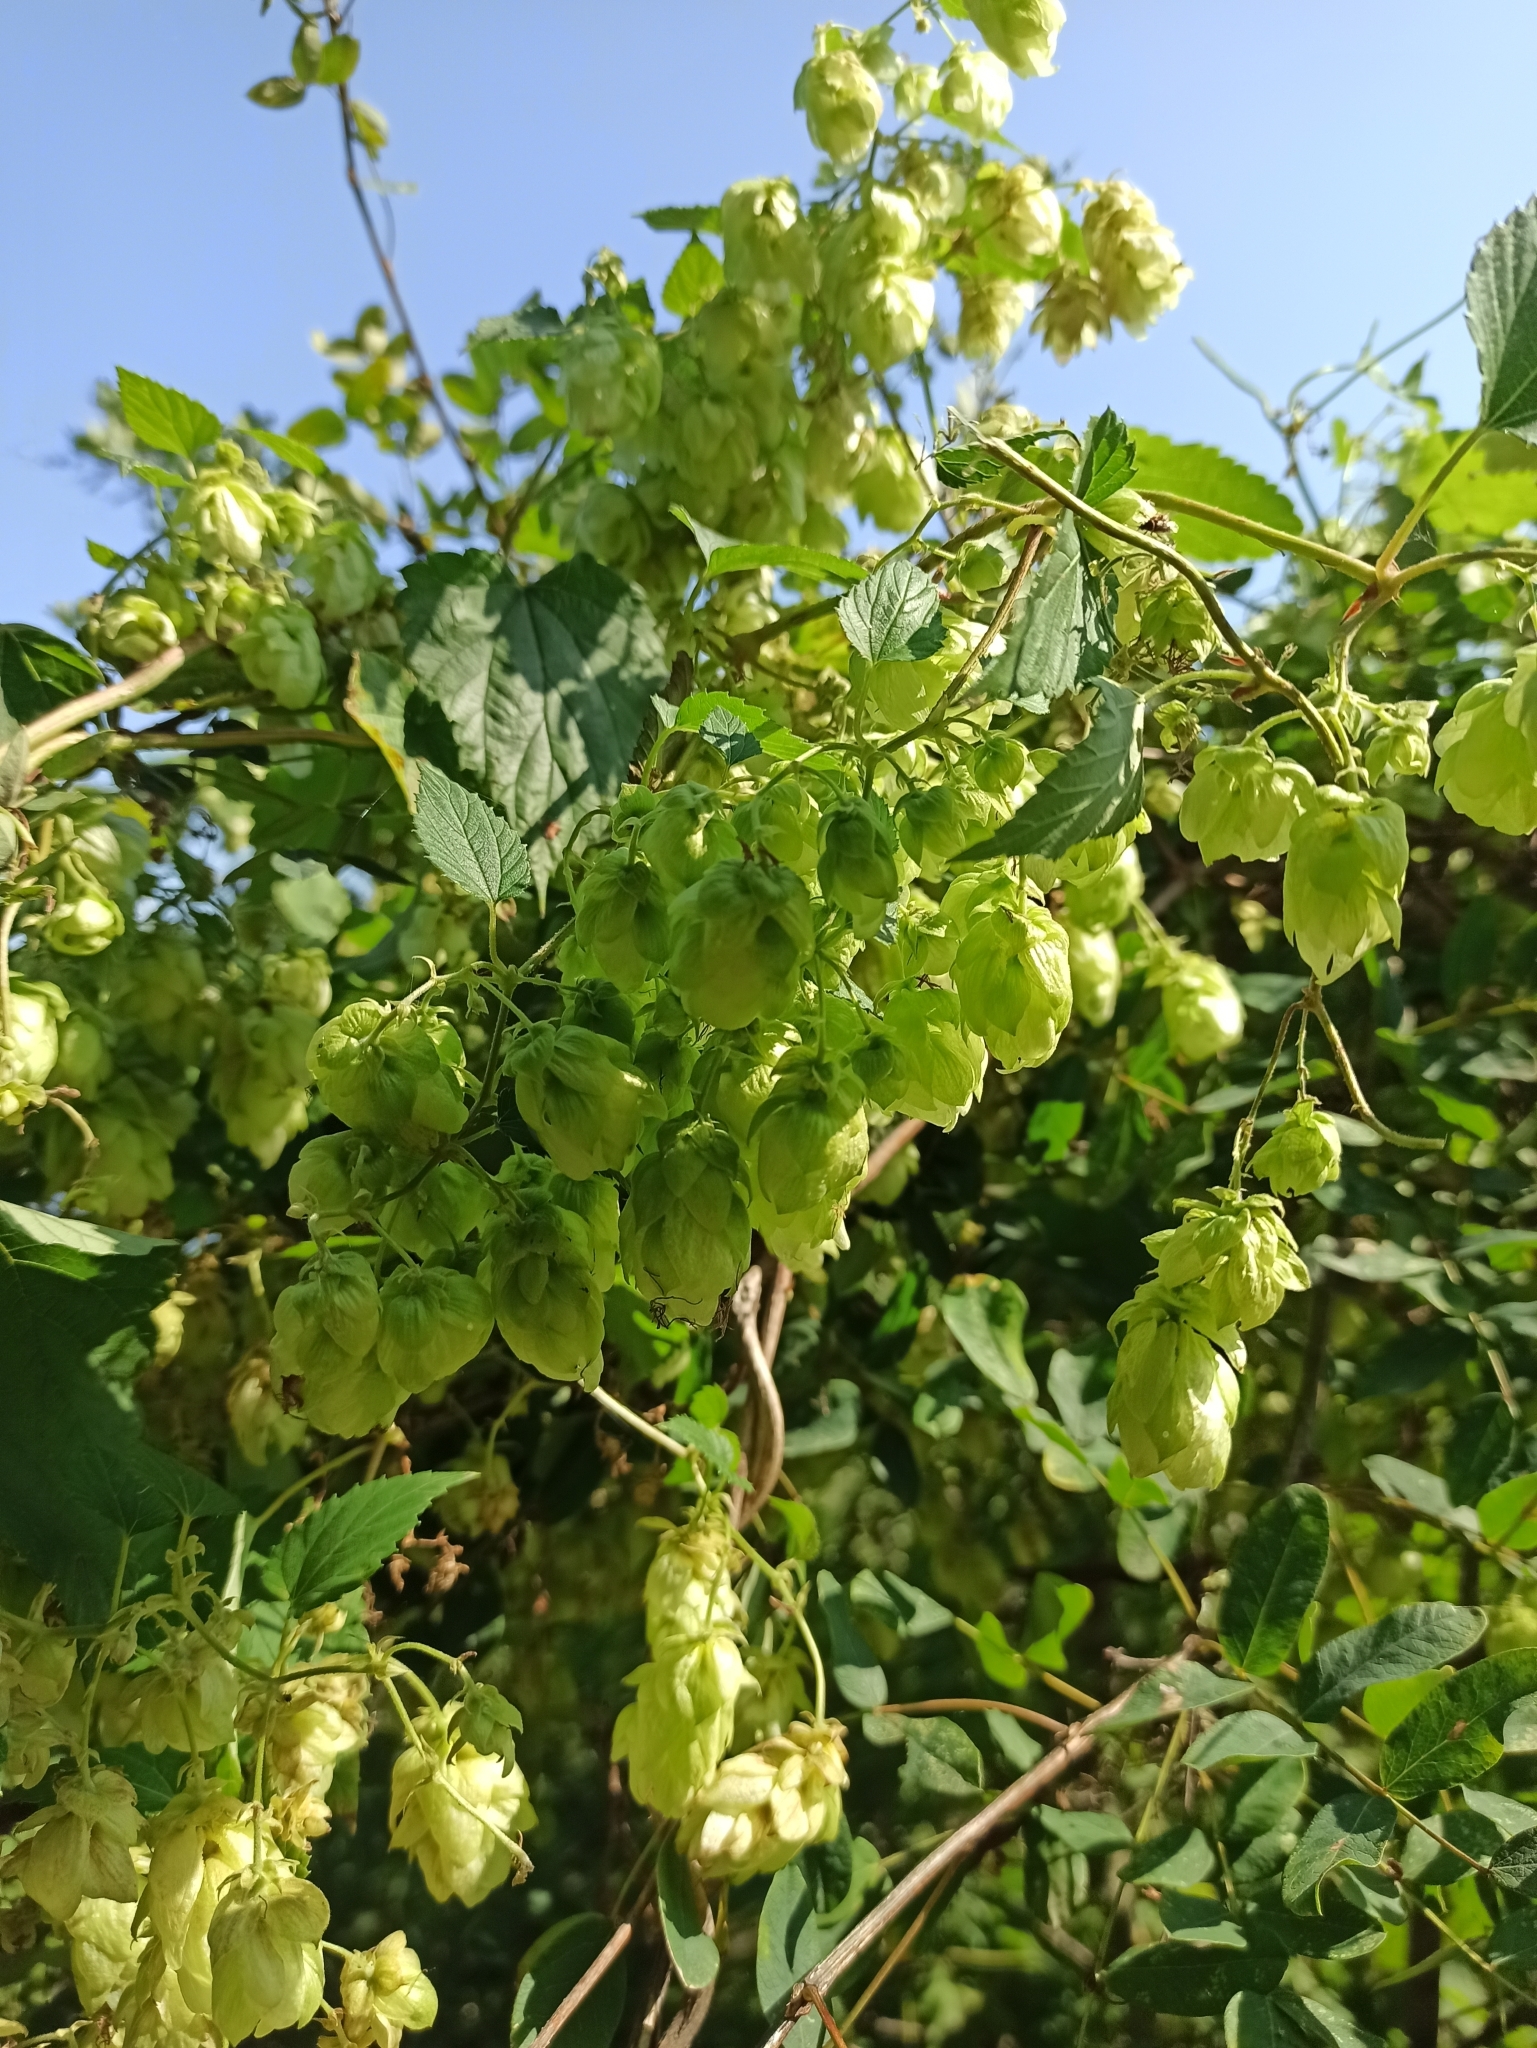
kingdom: Plantae
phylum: Tracheophyta
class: Magnoliopsida
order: Rosales
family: Cannabaceae
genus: Humulus
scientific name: Humulus lupulus
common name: Hop
